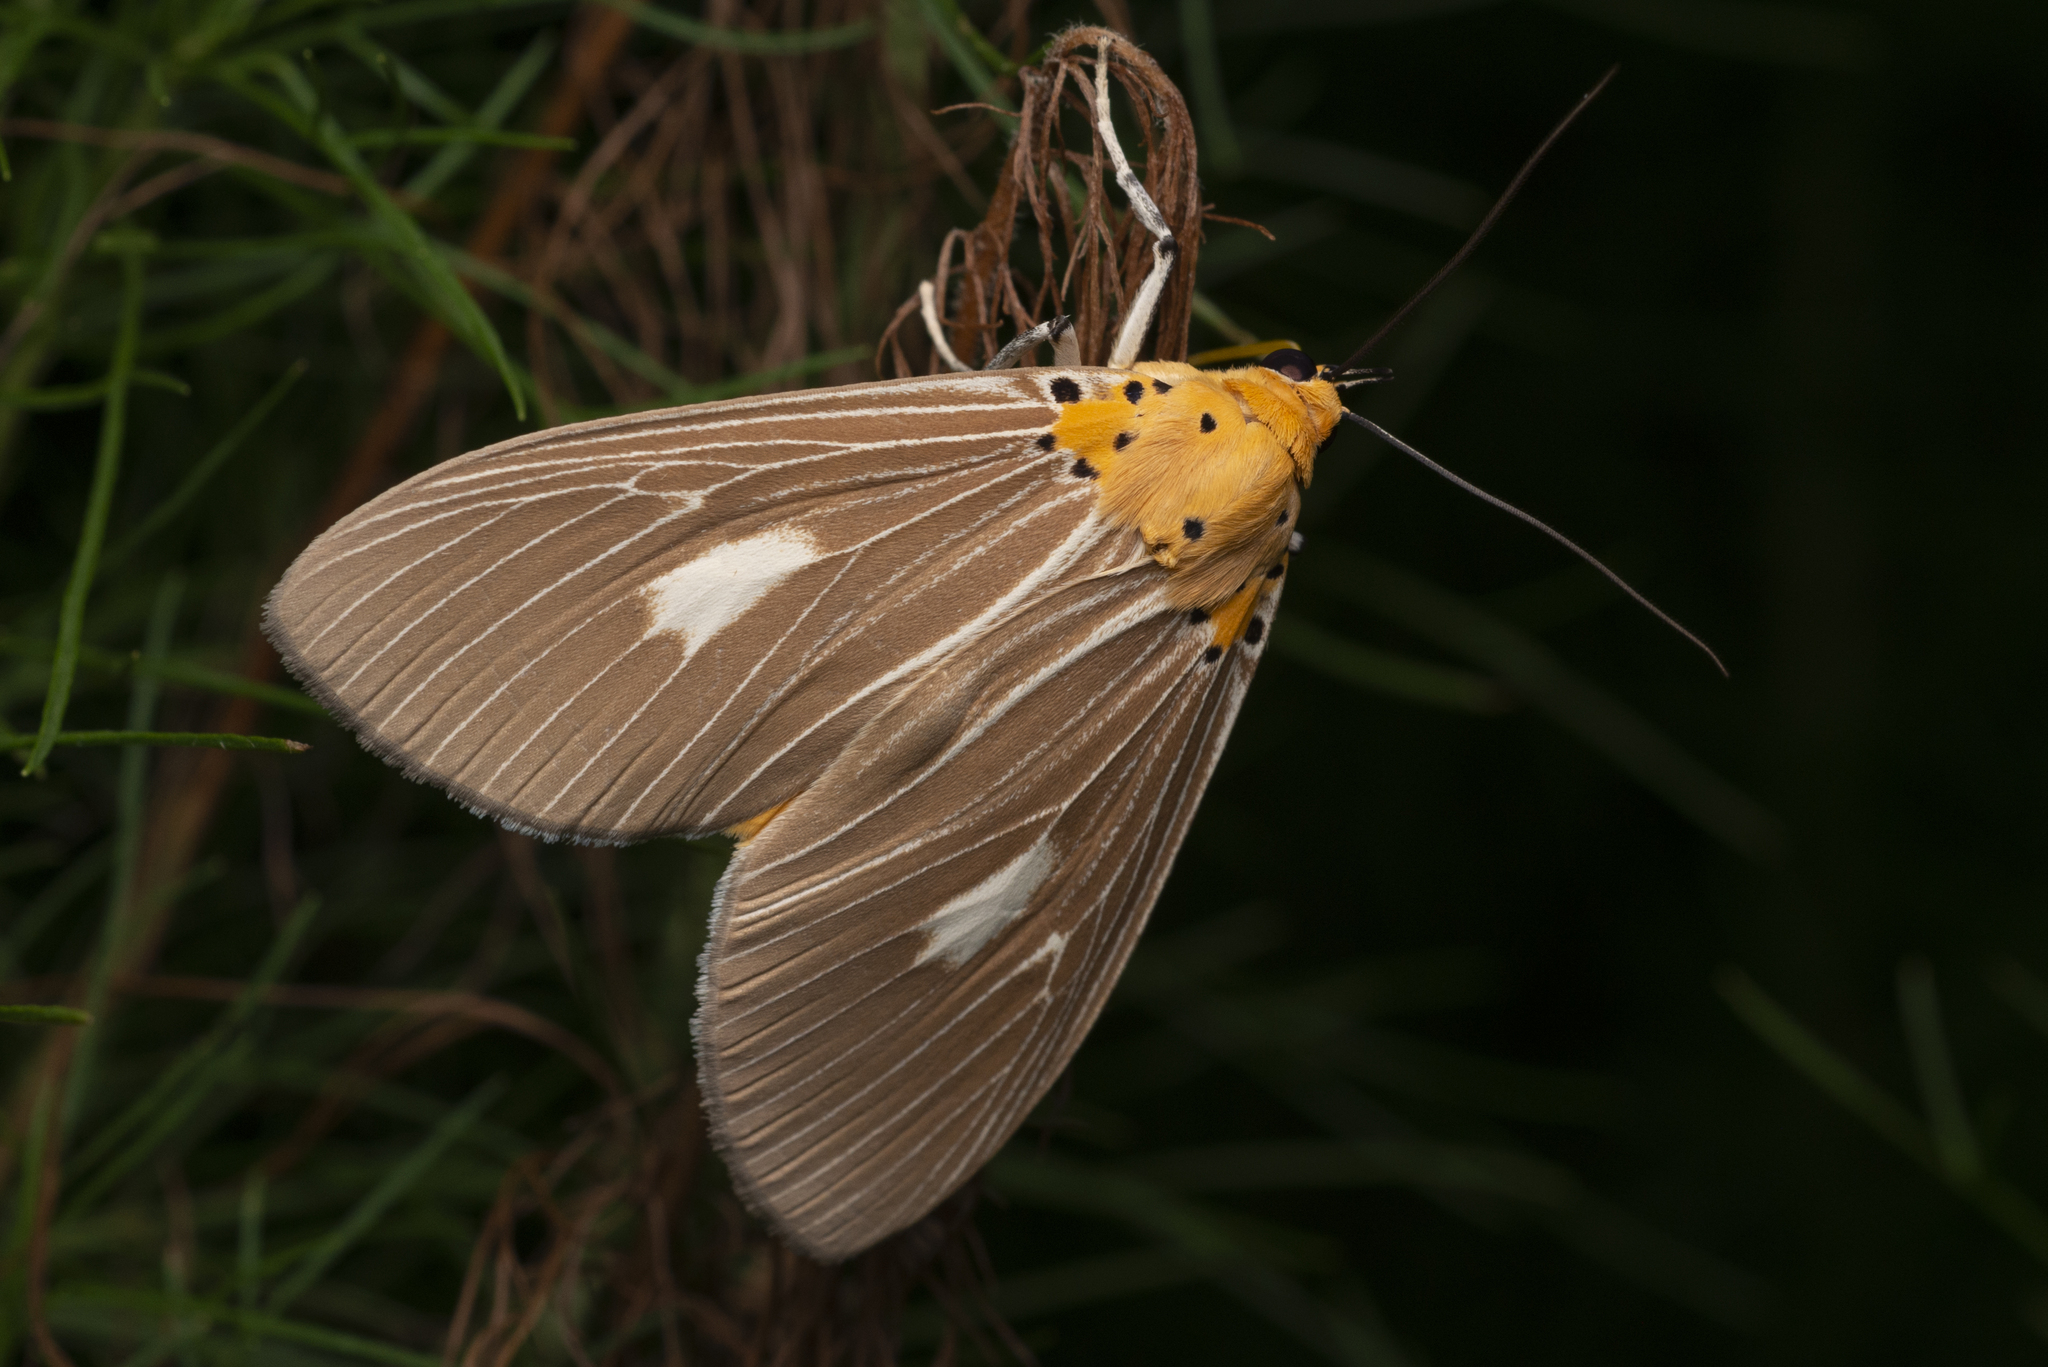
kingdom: Animalia
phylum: Arthropoda
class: Insecta
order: Lepidoptera
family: Erebidae
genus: Asota
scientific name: Asota plaginota
